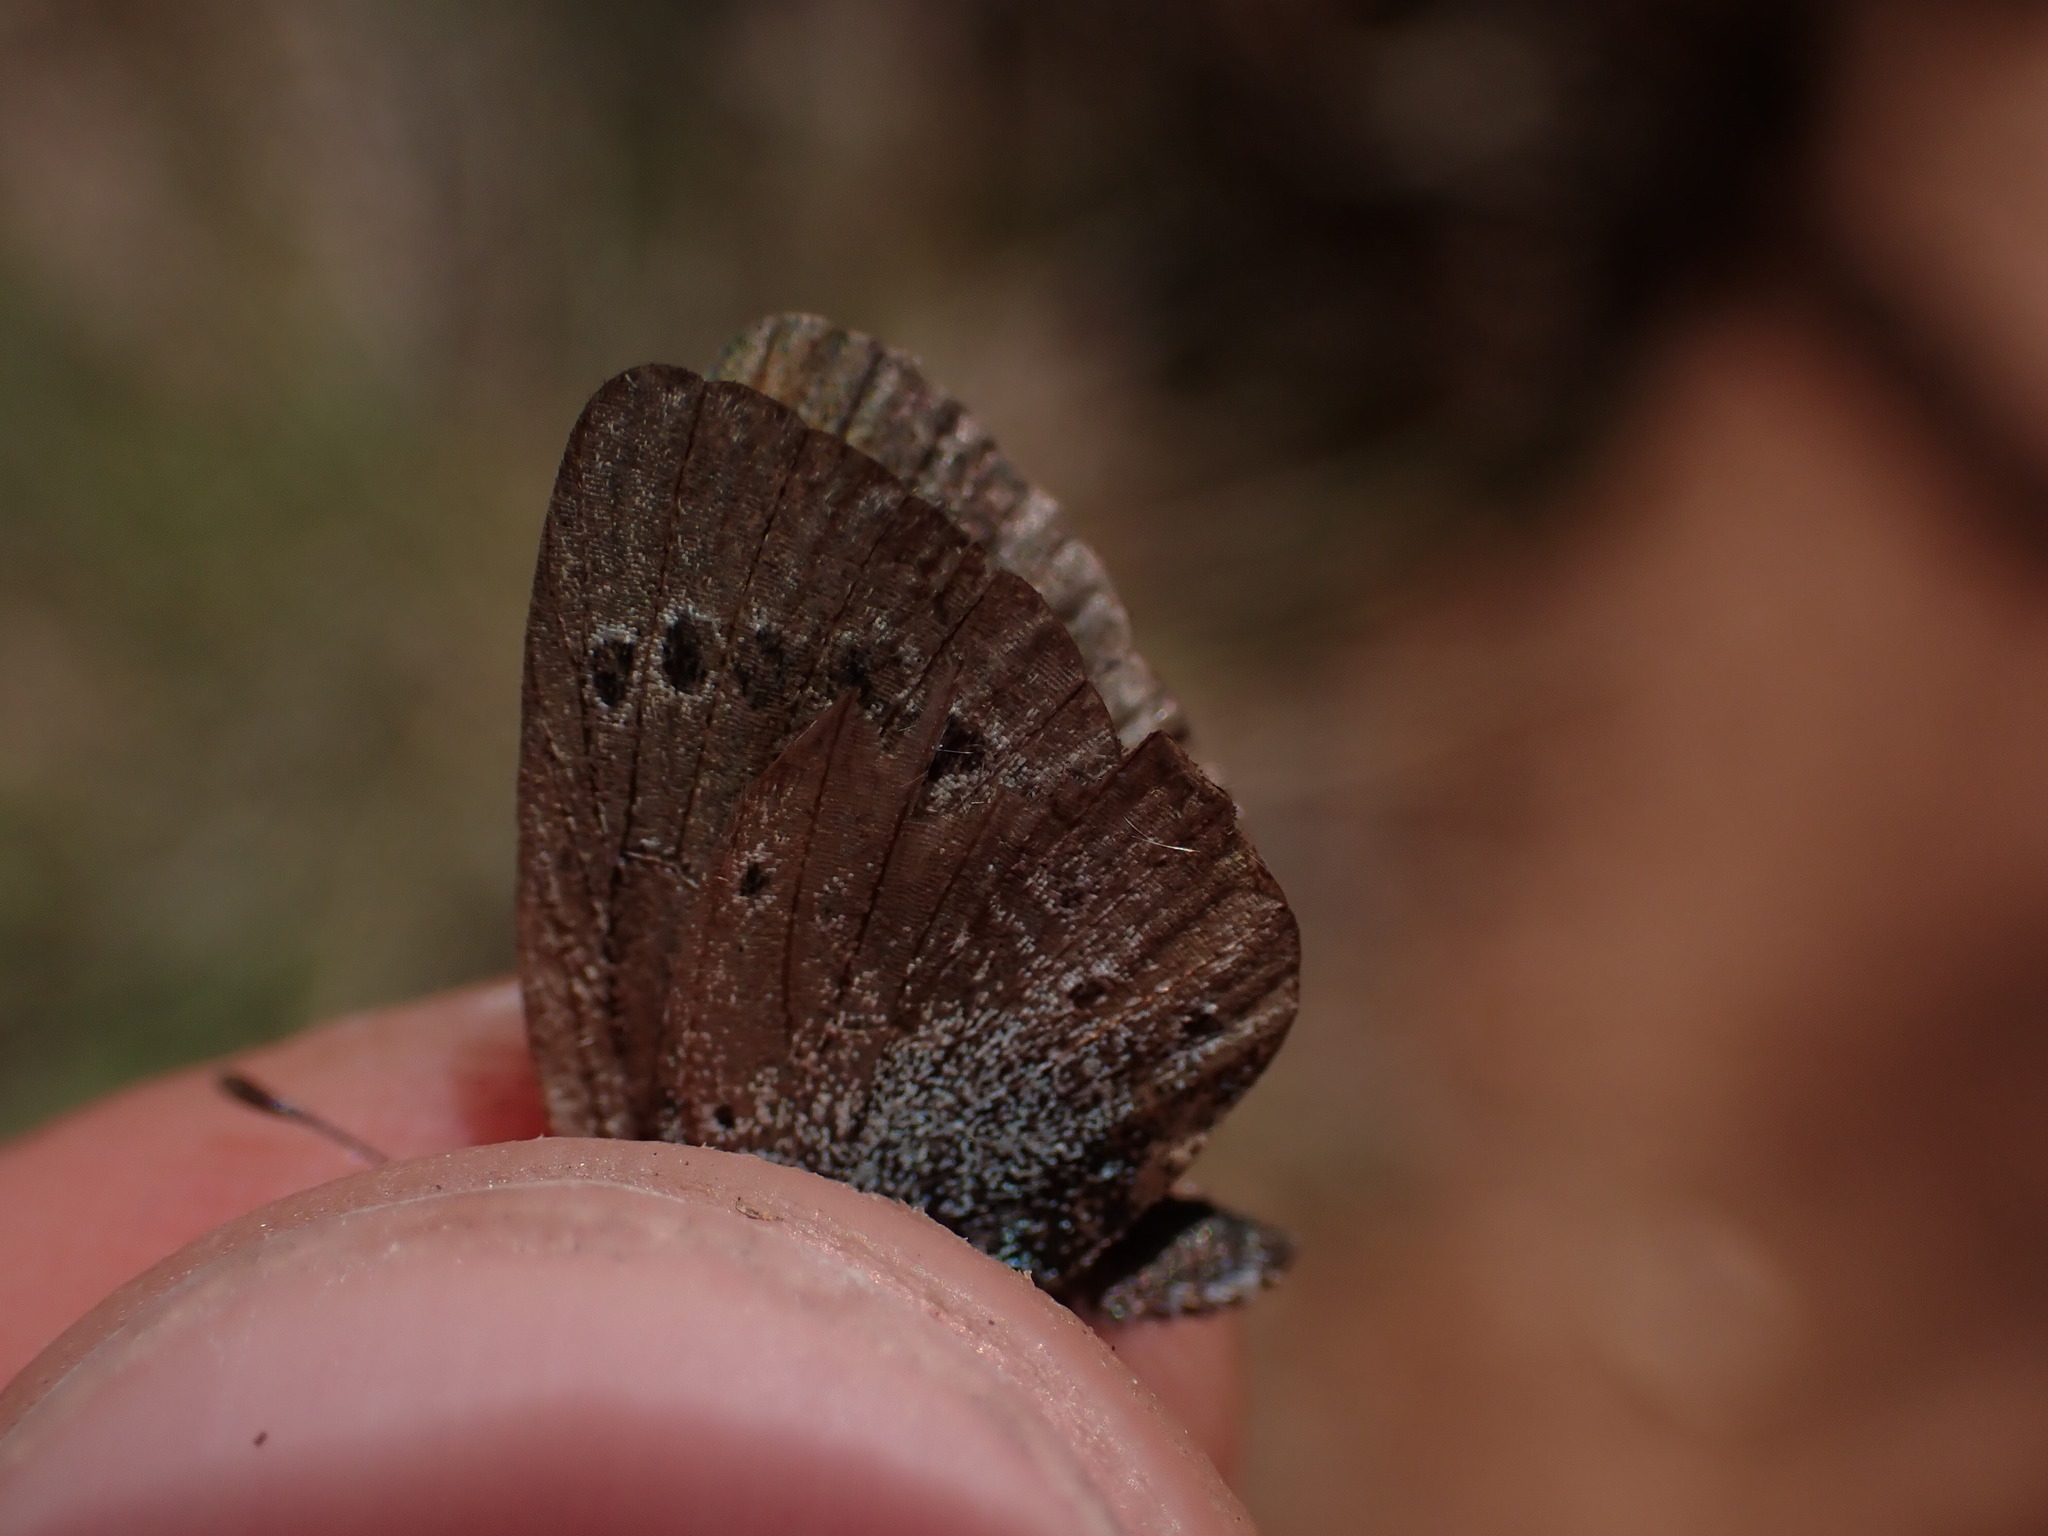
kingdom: Animalia
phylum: Arthropoda
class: Insecta
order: Lepidoptera
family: Lycaenidae
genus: Glaucopsyche
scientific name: Glaucopsyche alexis
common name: Green-underside blue
